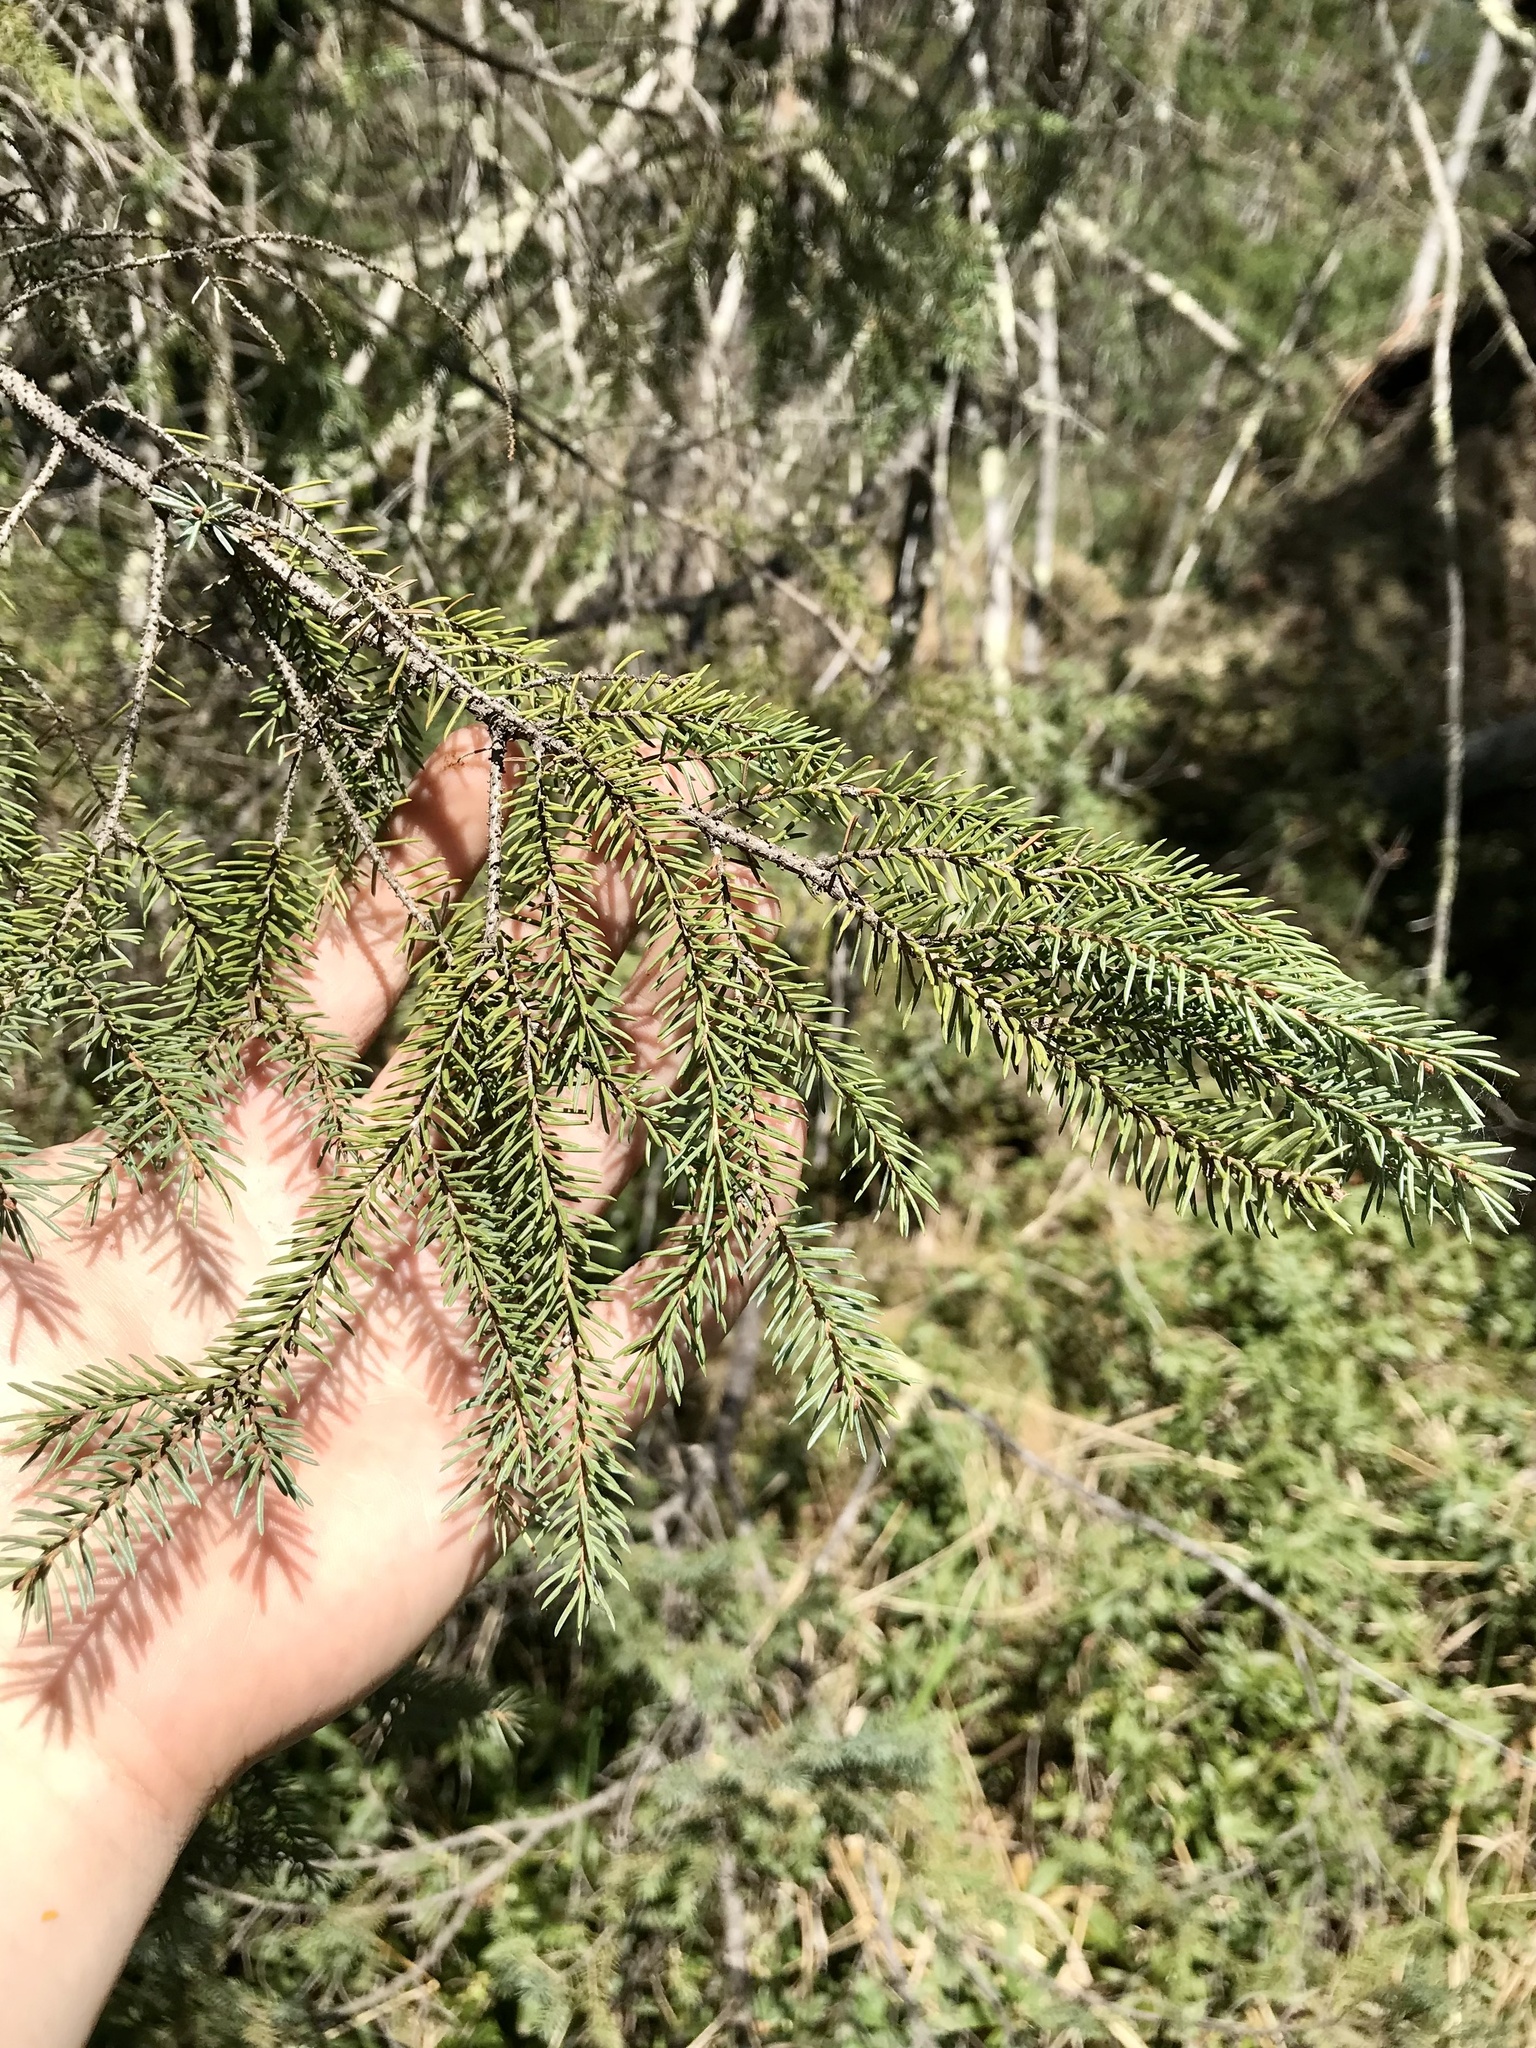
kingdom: Plantae
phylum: Tracheophyta
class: Pinopsida
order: Pinales
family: Pinaceae
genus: Picea
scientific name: Picea mariana
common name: Black spruce
